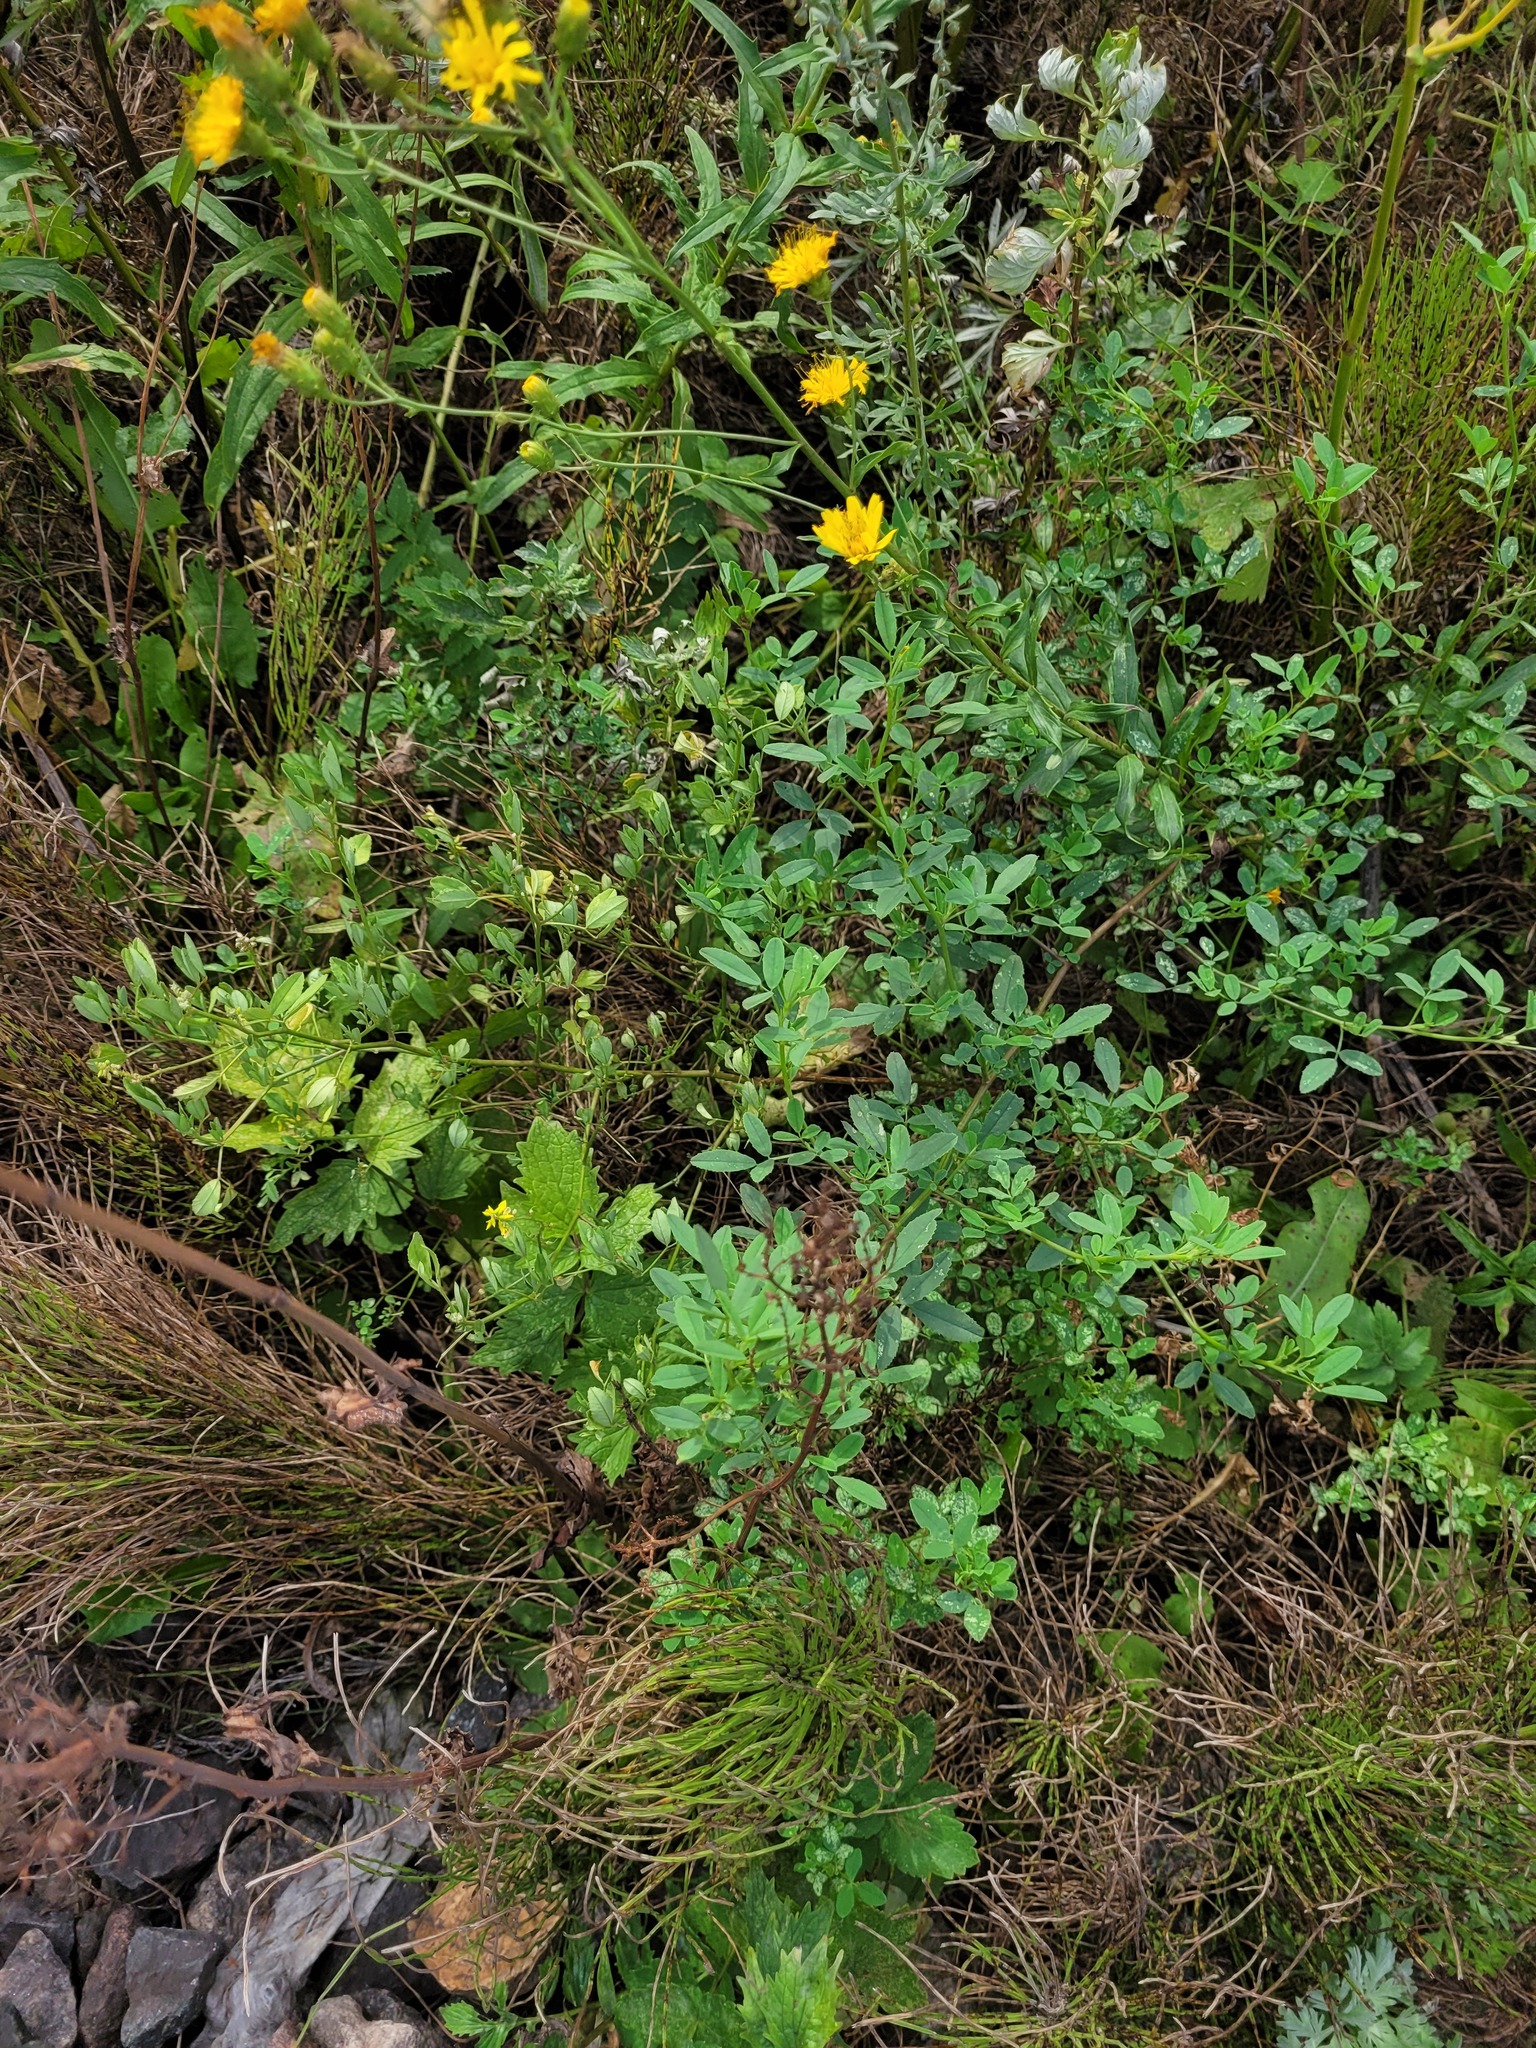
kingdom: Plantae
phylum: Tracheophyta
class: Magnoliopsida
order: Fabales
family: Fabaceae
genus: Melilotus
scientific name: Melilotus officinalis
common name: Sweetclover
